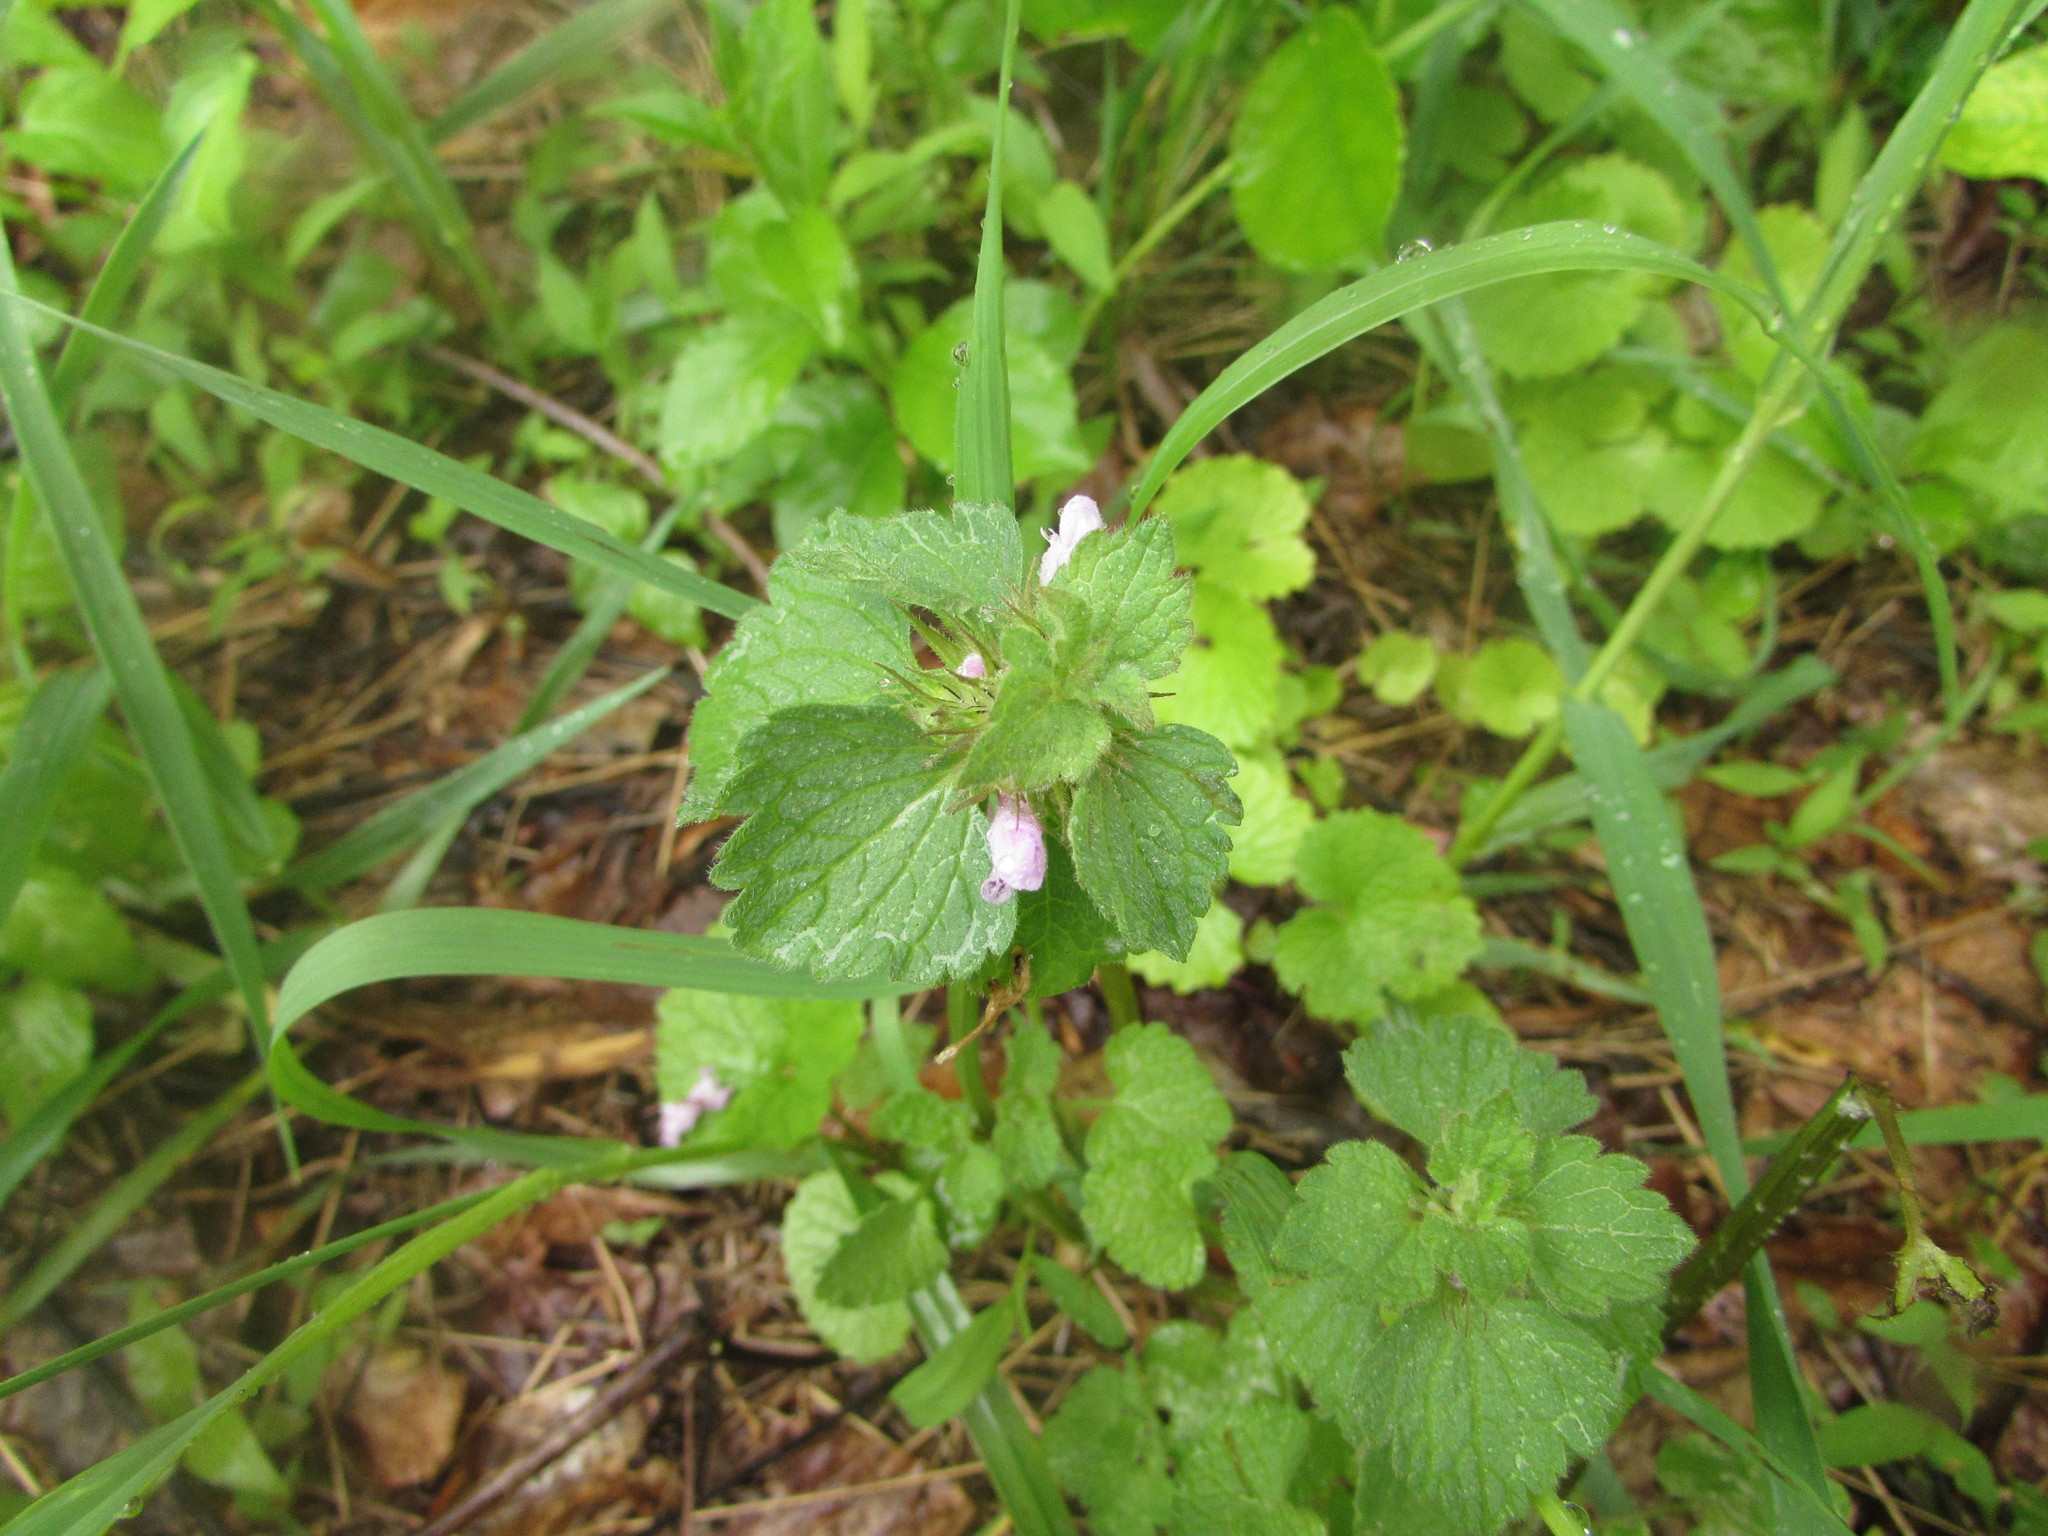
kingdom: Plantae
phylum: Tracheophyta
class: Magnoliopsida
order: Lamiales
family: Lamiaceae
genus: Lamium
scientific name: Lamium purpureum
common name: Red dead-nettle
